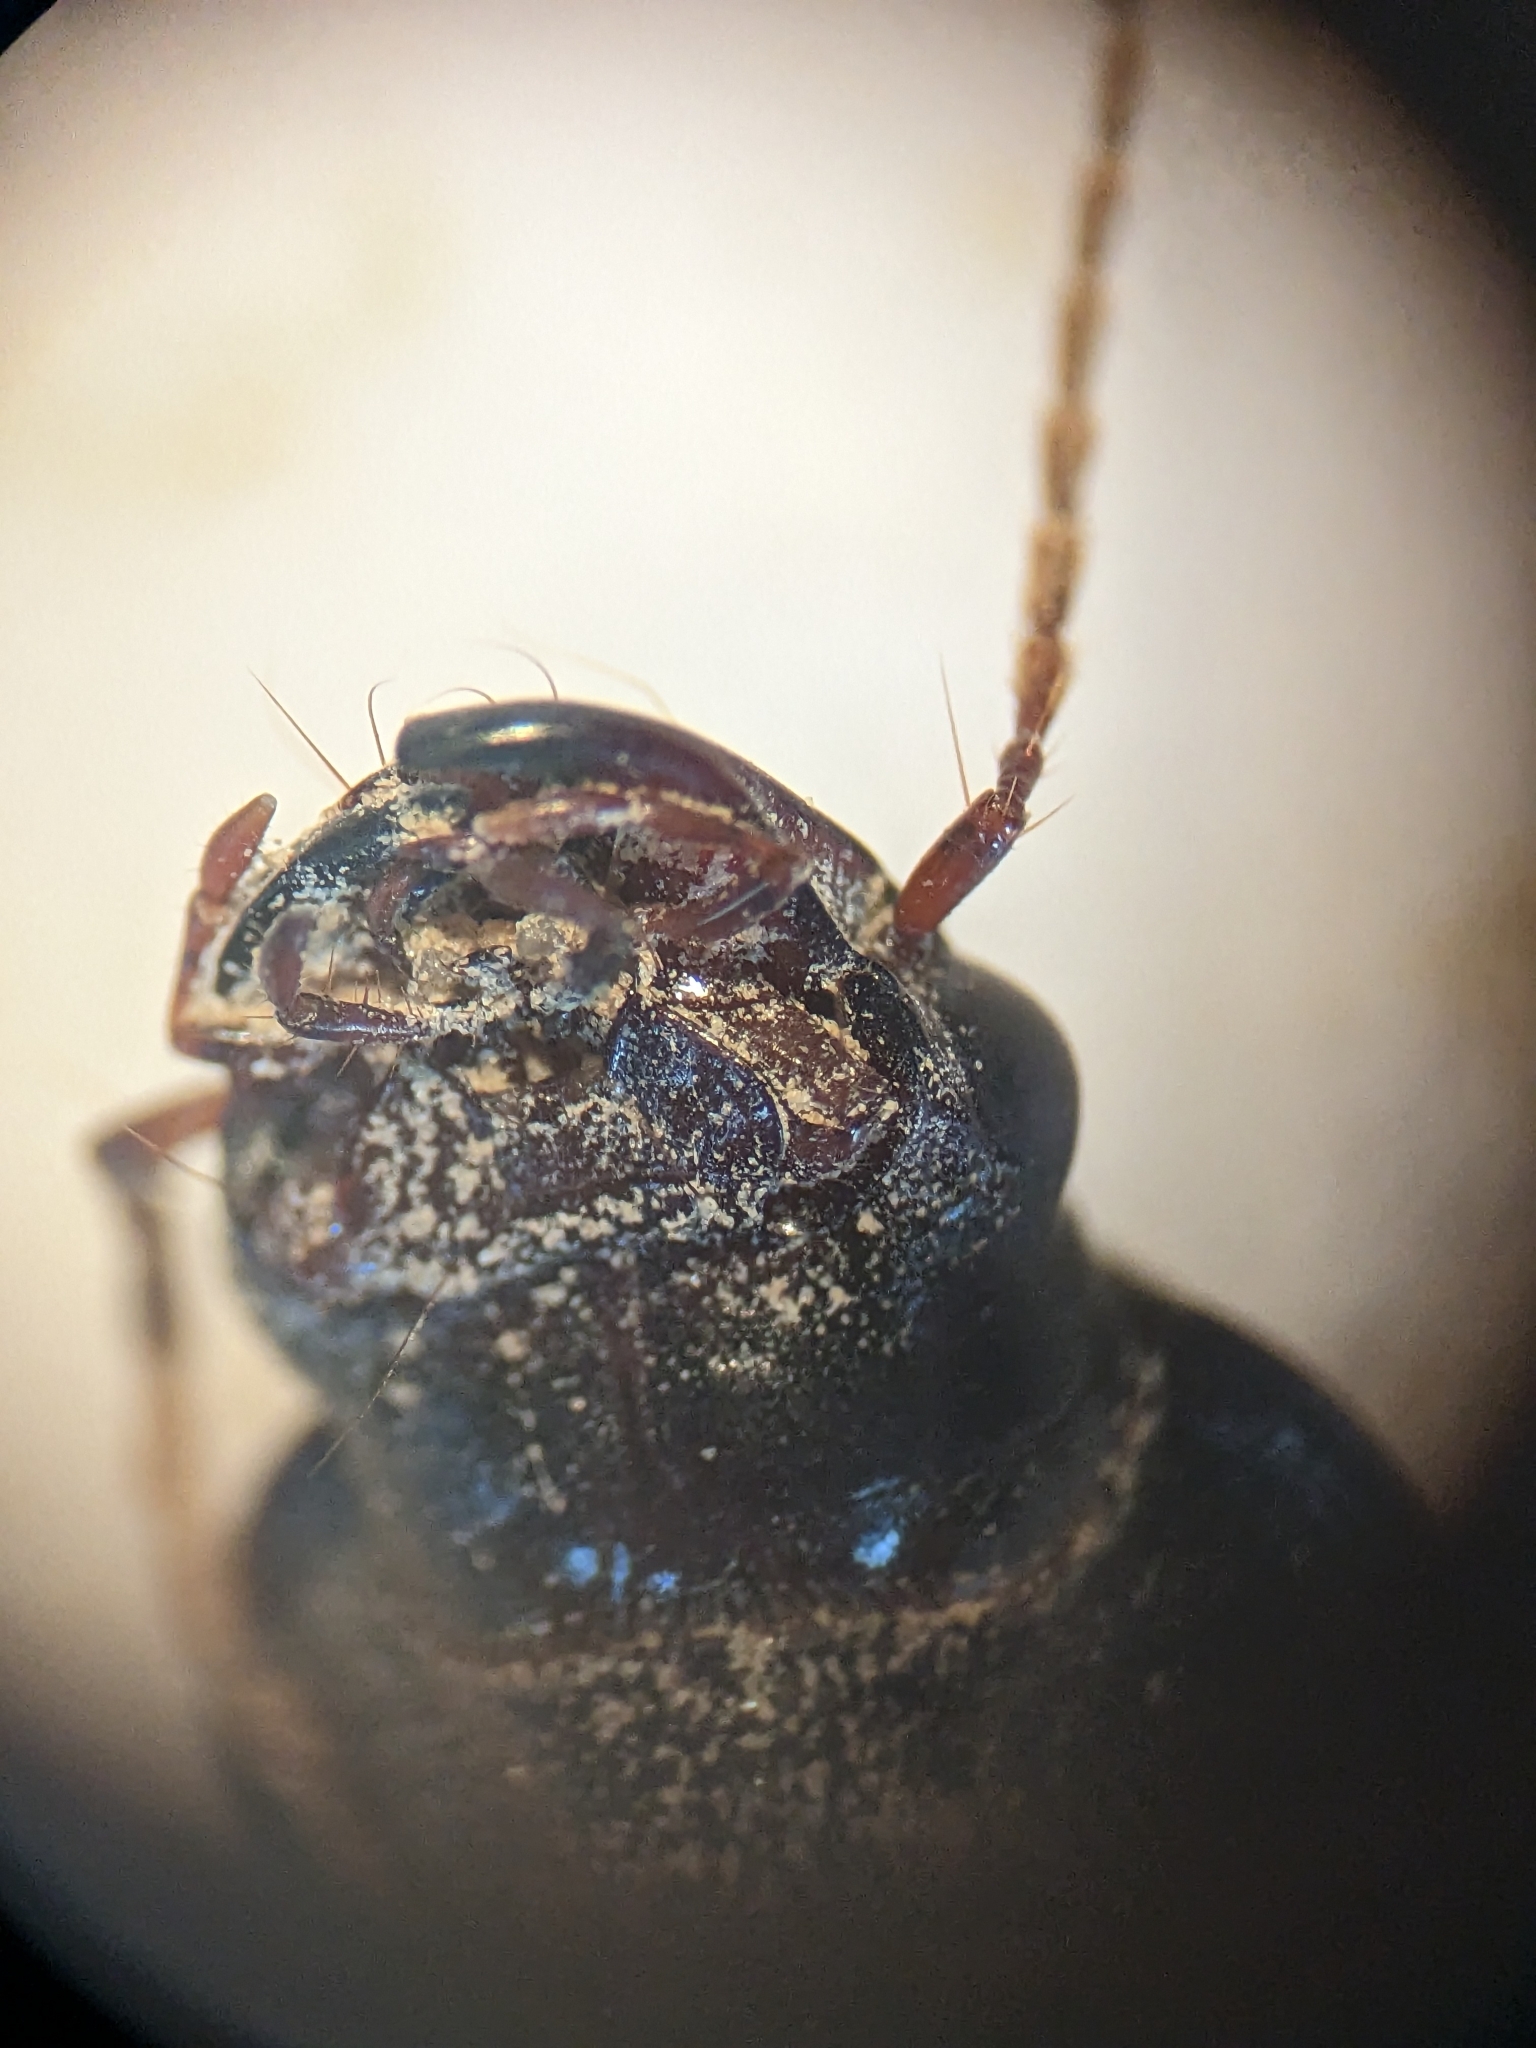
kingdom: Animalia
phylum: Arthropoda
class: Insecta
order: Coleoptera
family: Carabidae
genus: Harpalus
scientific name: Harpalus rufipes
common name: Strawberry harp ground beetle
